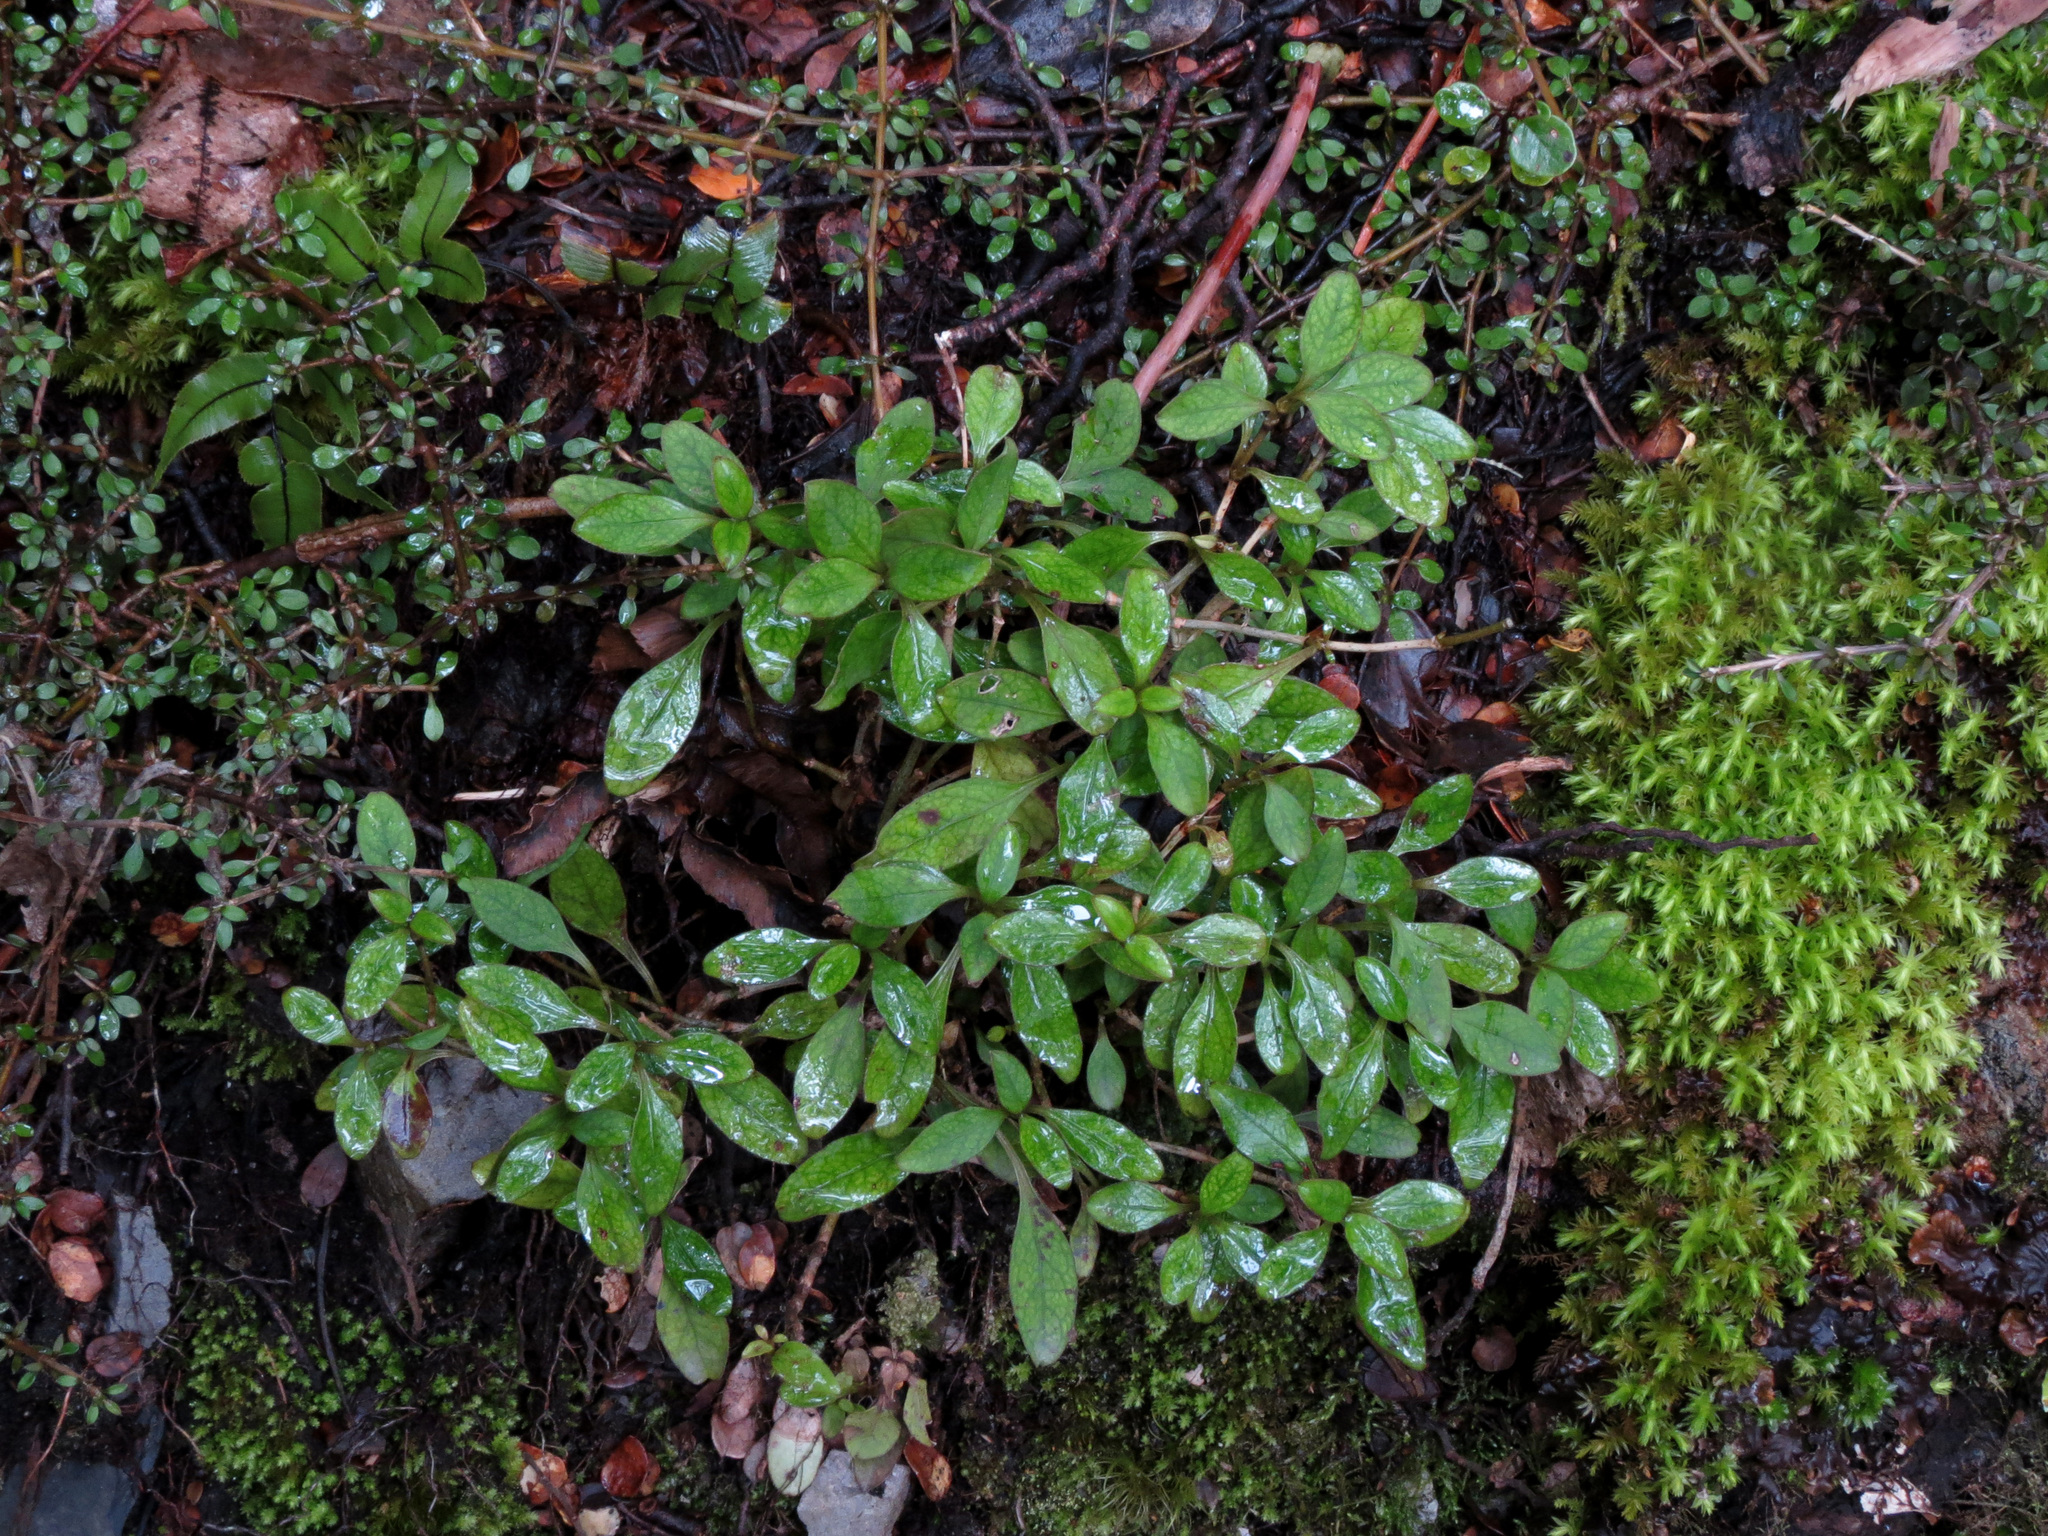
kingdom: Plantae
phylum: Tracheophyta
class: Magnoliopsida
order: Gentianales
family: Rubiaceae
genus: Coprosma
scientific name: Coprosma foetidissima
